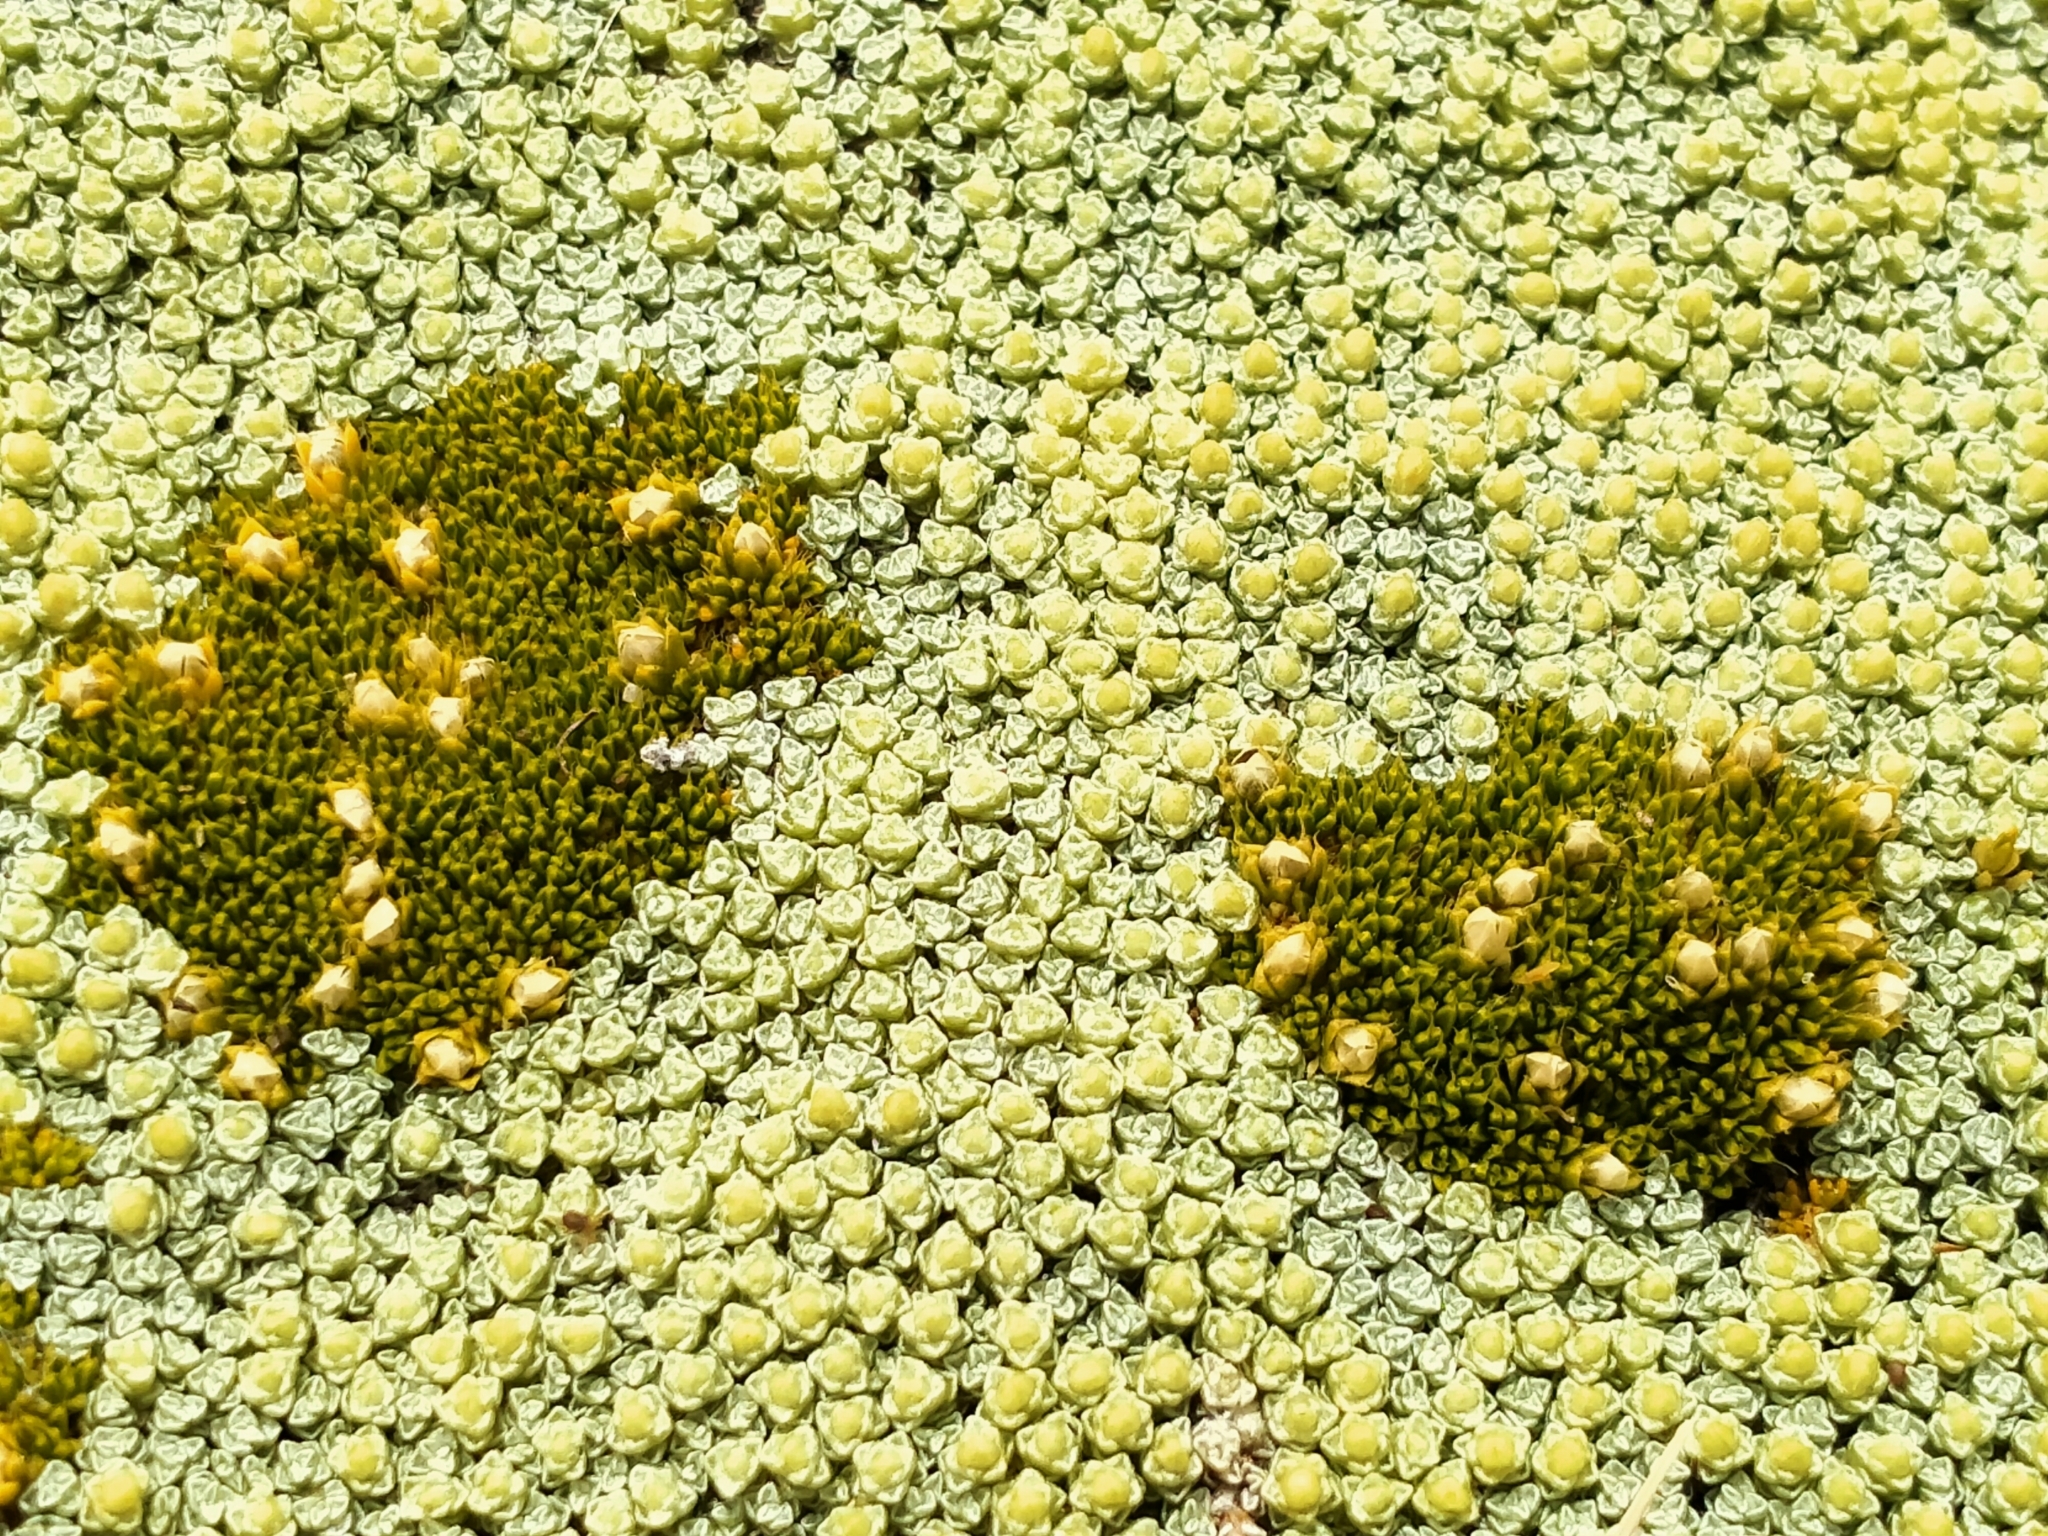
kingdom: Plantae
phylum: Tracheophyta
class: Magnoliopsida
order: Caryophyllales
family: Caryophyllaceae
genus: Colobanthus
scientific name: Colobanthus brevisepalus
